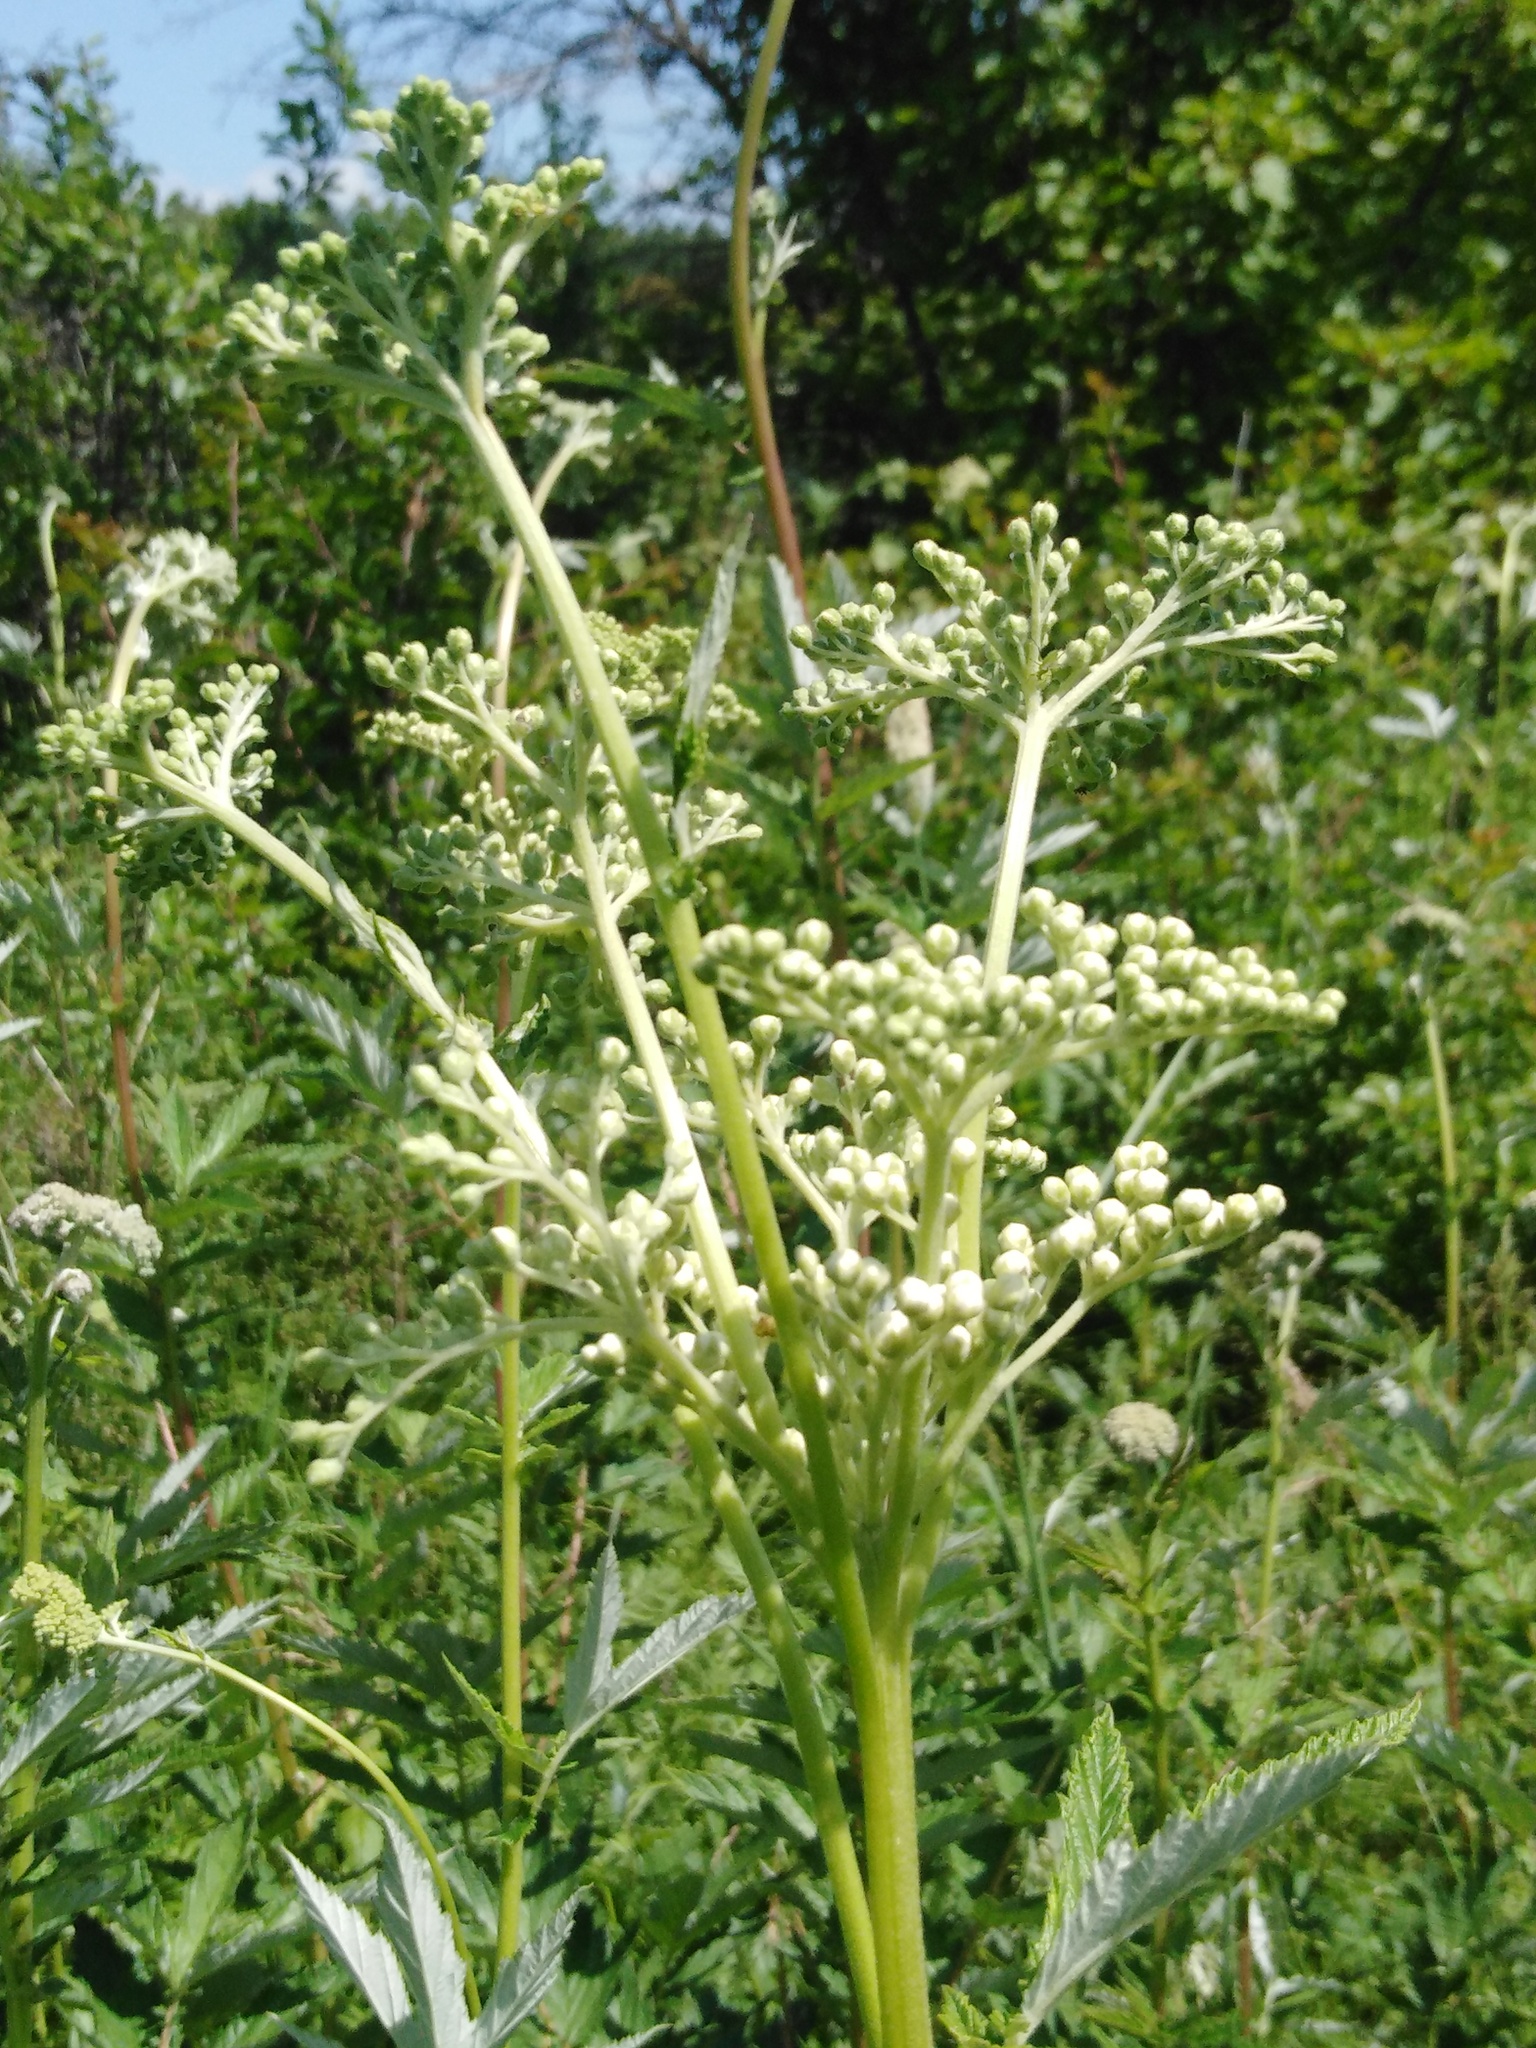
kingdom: Plantae
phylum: Tracheophyta
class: Magnoliopsida
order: Rosales
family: Rosaceae
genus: Filipendula
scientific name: Filipendula ulmaria
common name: Meadowsweet
